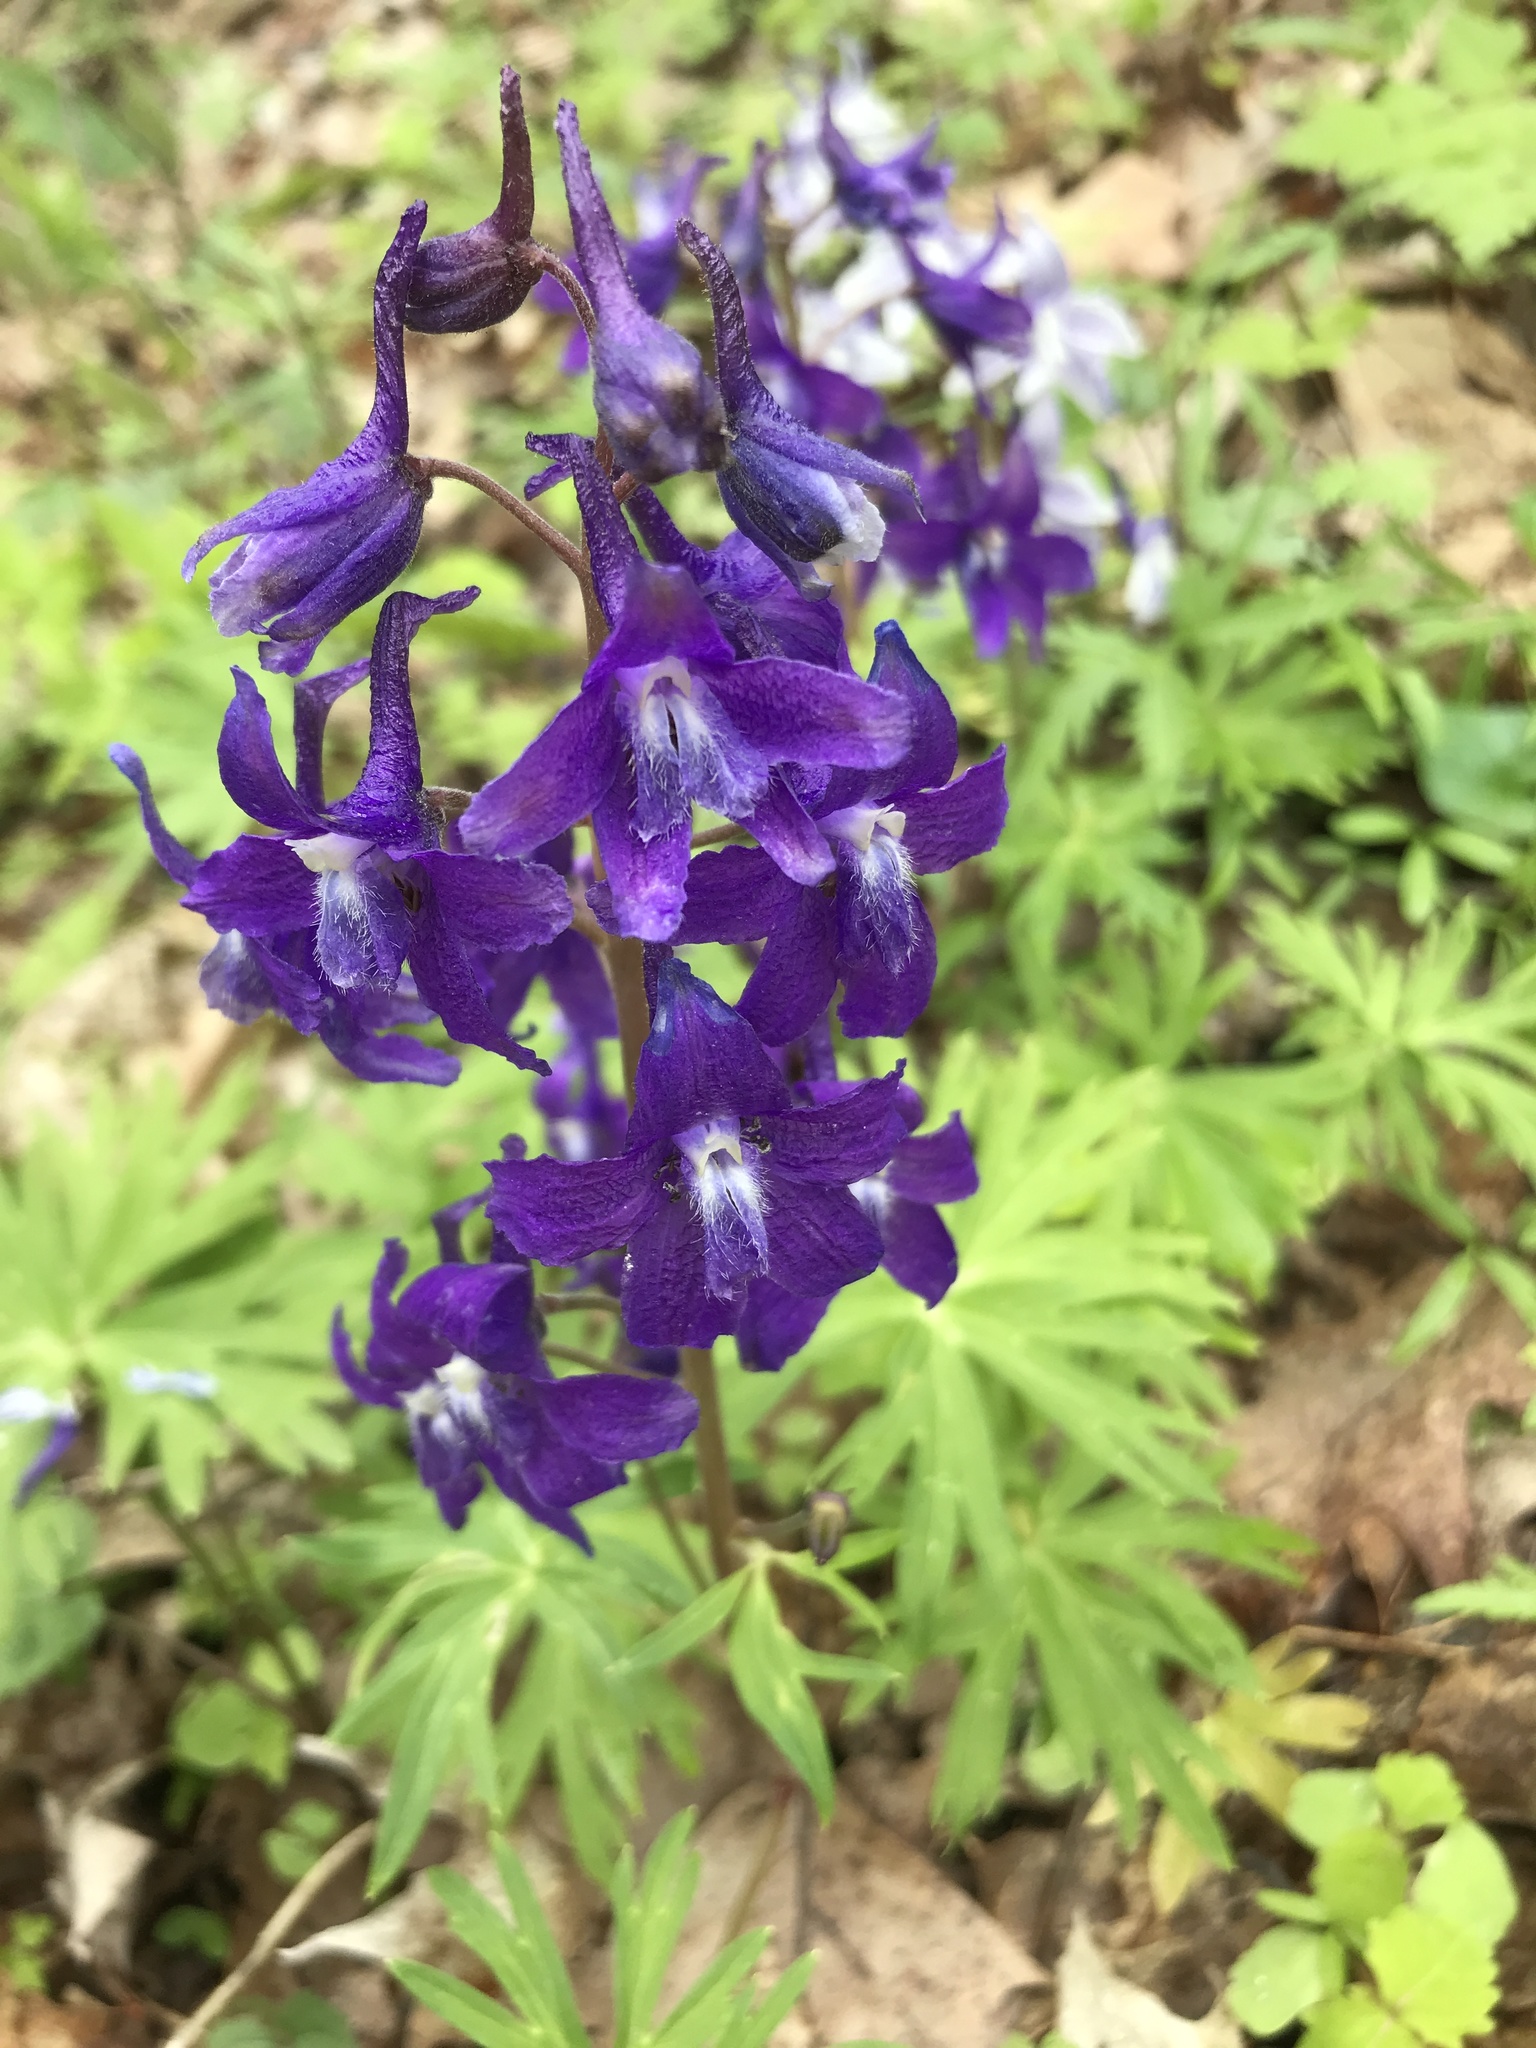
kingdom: Plantae
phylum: Tracheophyta
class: Magnoliopsida
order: Ranunculales
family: Ranunculaceae
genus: Delphinium
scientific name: Delphinium tricorne
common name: Dwarf larkspur
